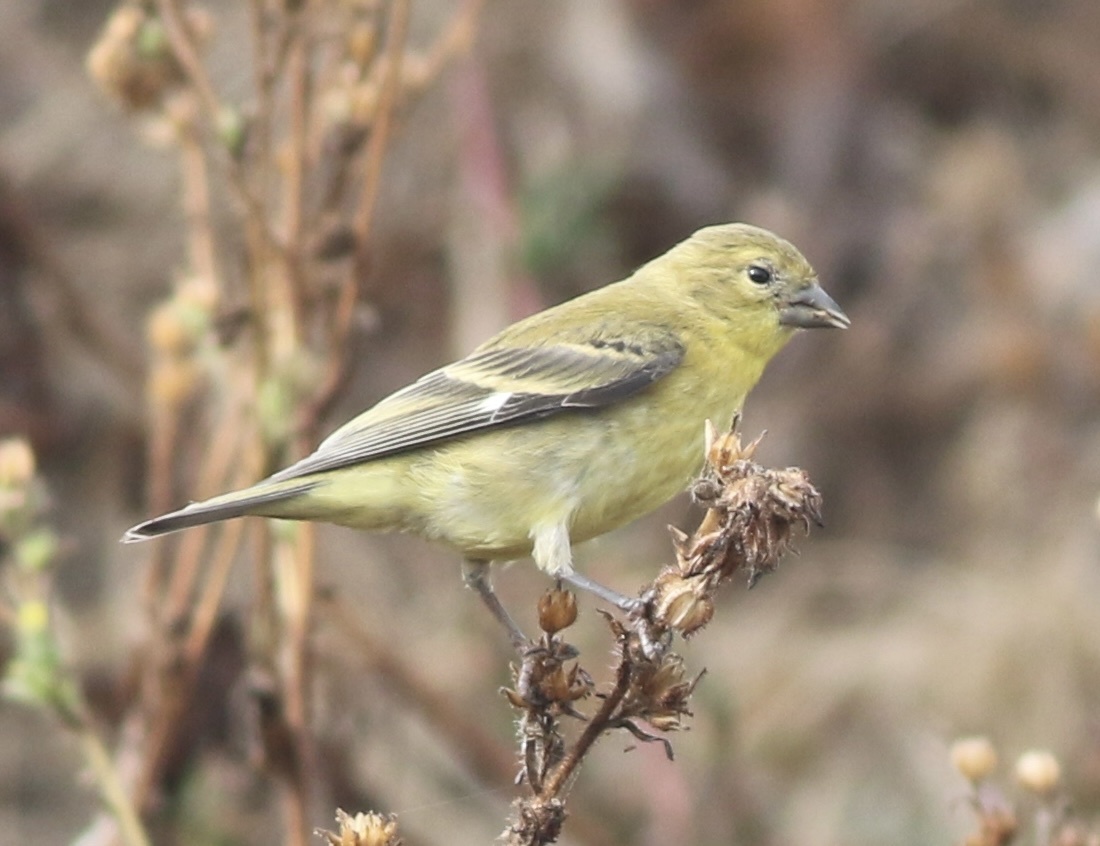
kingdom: Animalia
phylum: Chordata
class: Aves
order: Passeriformes
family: Fringillidae
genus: Spinus
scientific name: Spinus psaltria
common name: Lesser goldfinch
